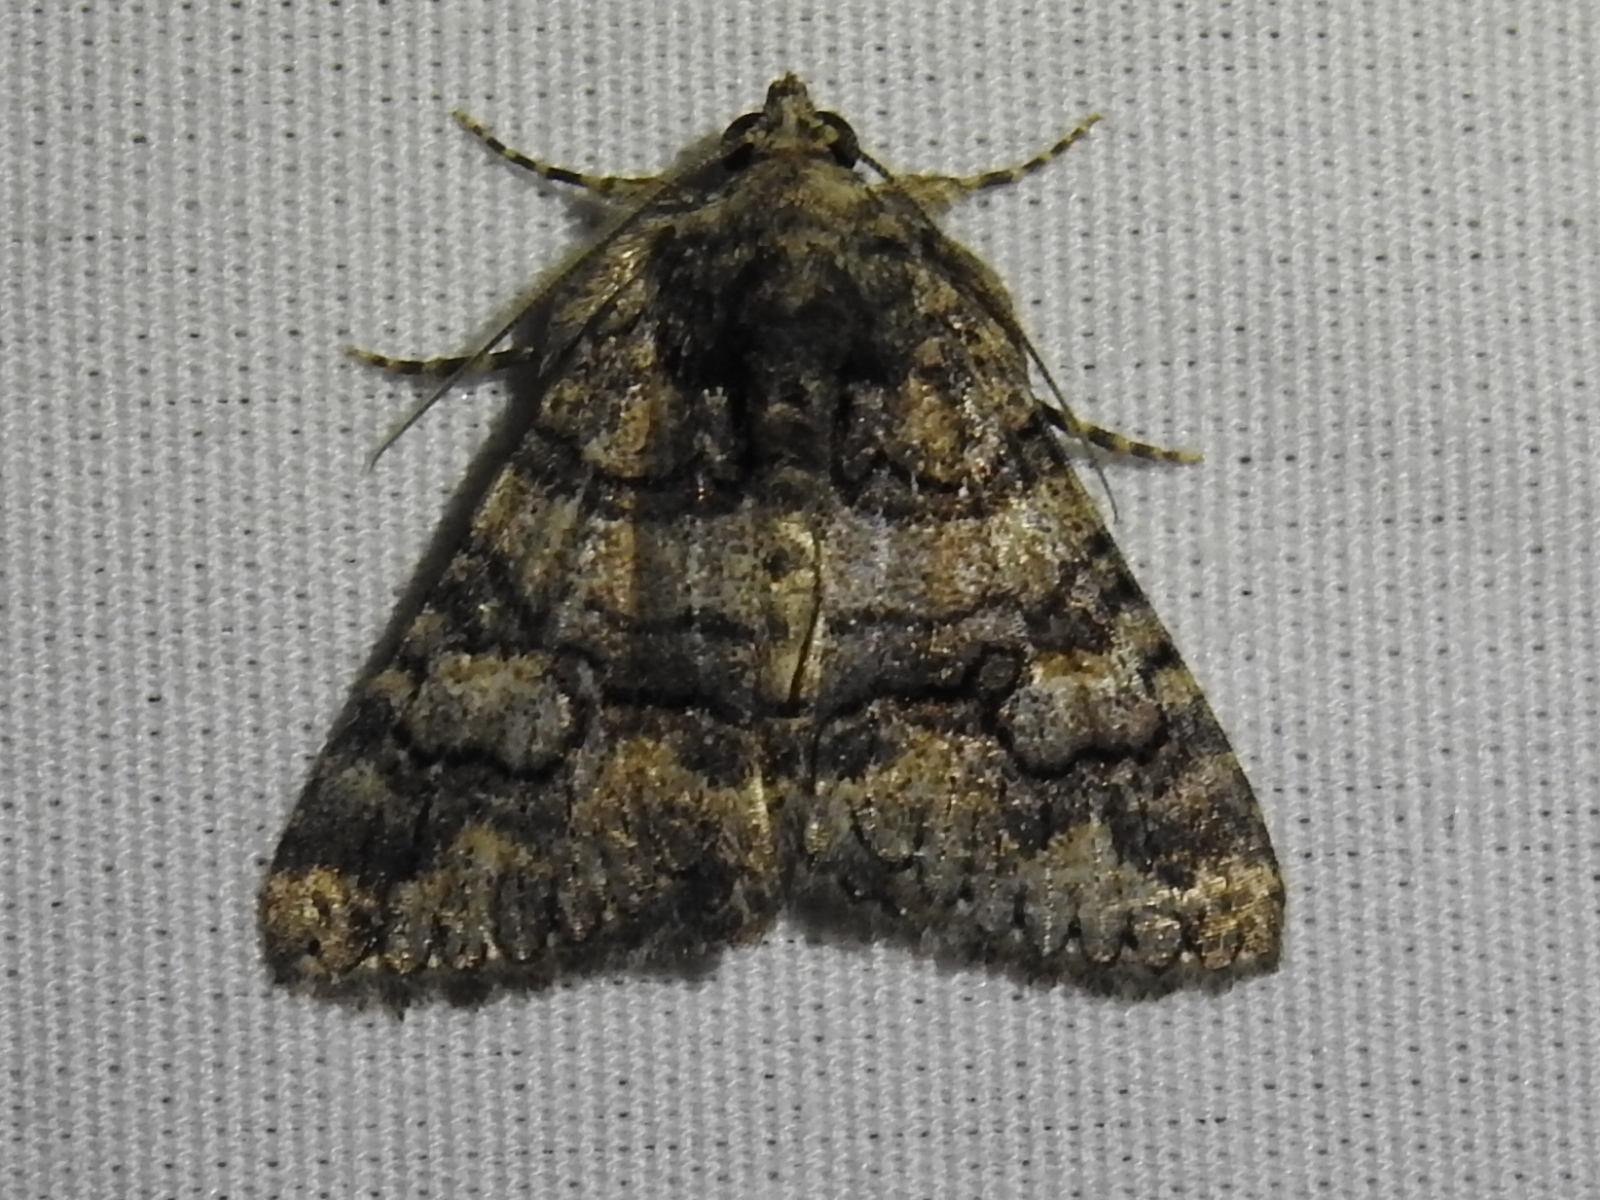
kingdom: Animalia
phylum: Arthropoda
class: Insecta
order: Lepidoptera
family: Erebidae
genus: Elousa
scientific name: Elousa mima
